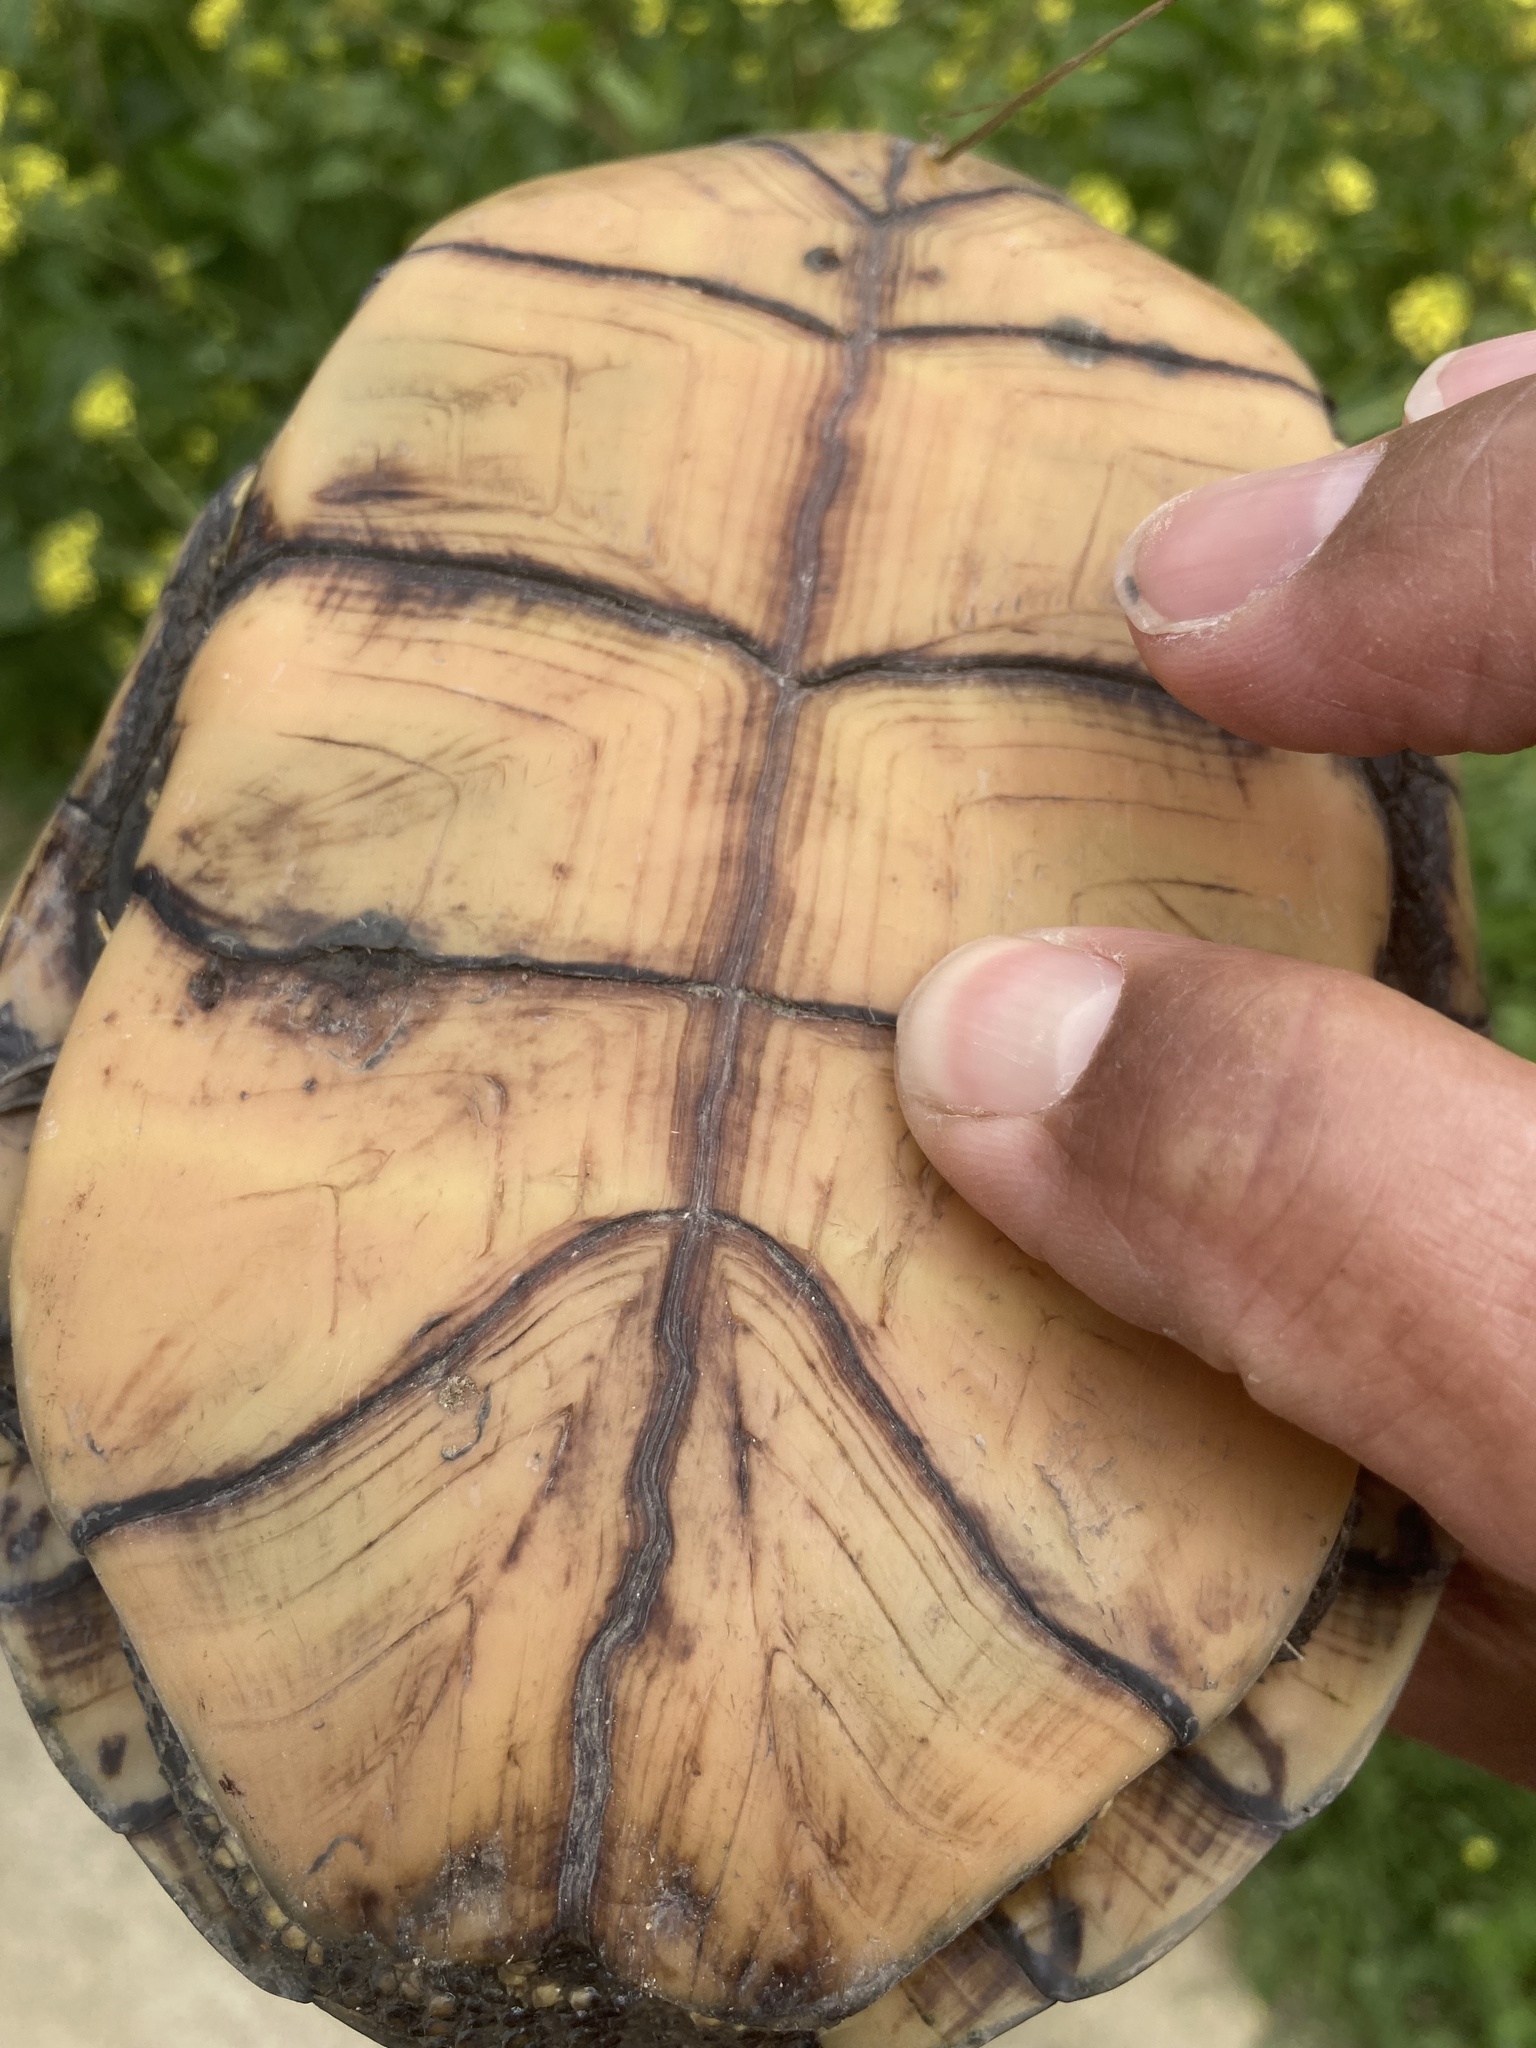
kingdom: Animalia
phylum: Chordata
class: Testudines
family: Emydidae
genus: Emys
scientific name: Emys orbicularis
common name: European pond turtle
